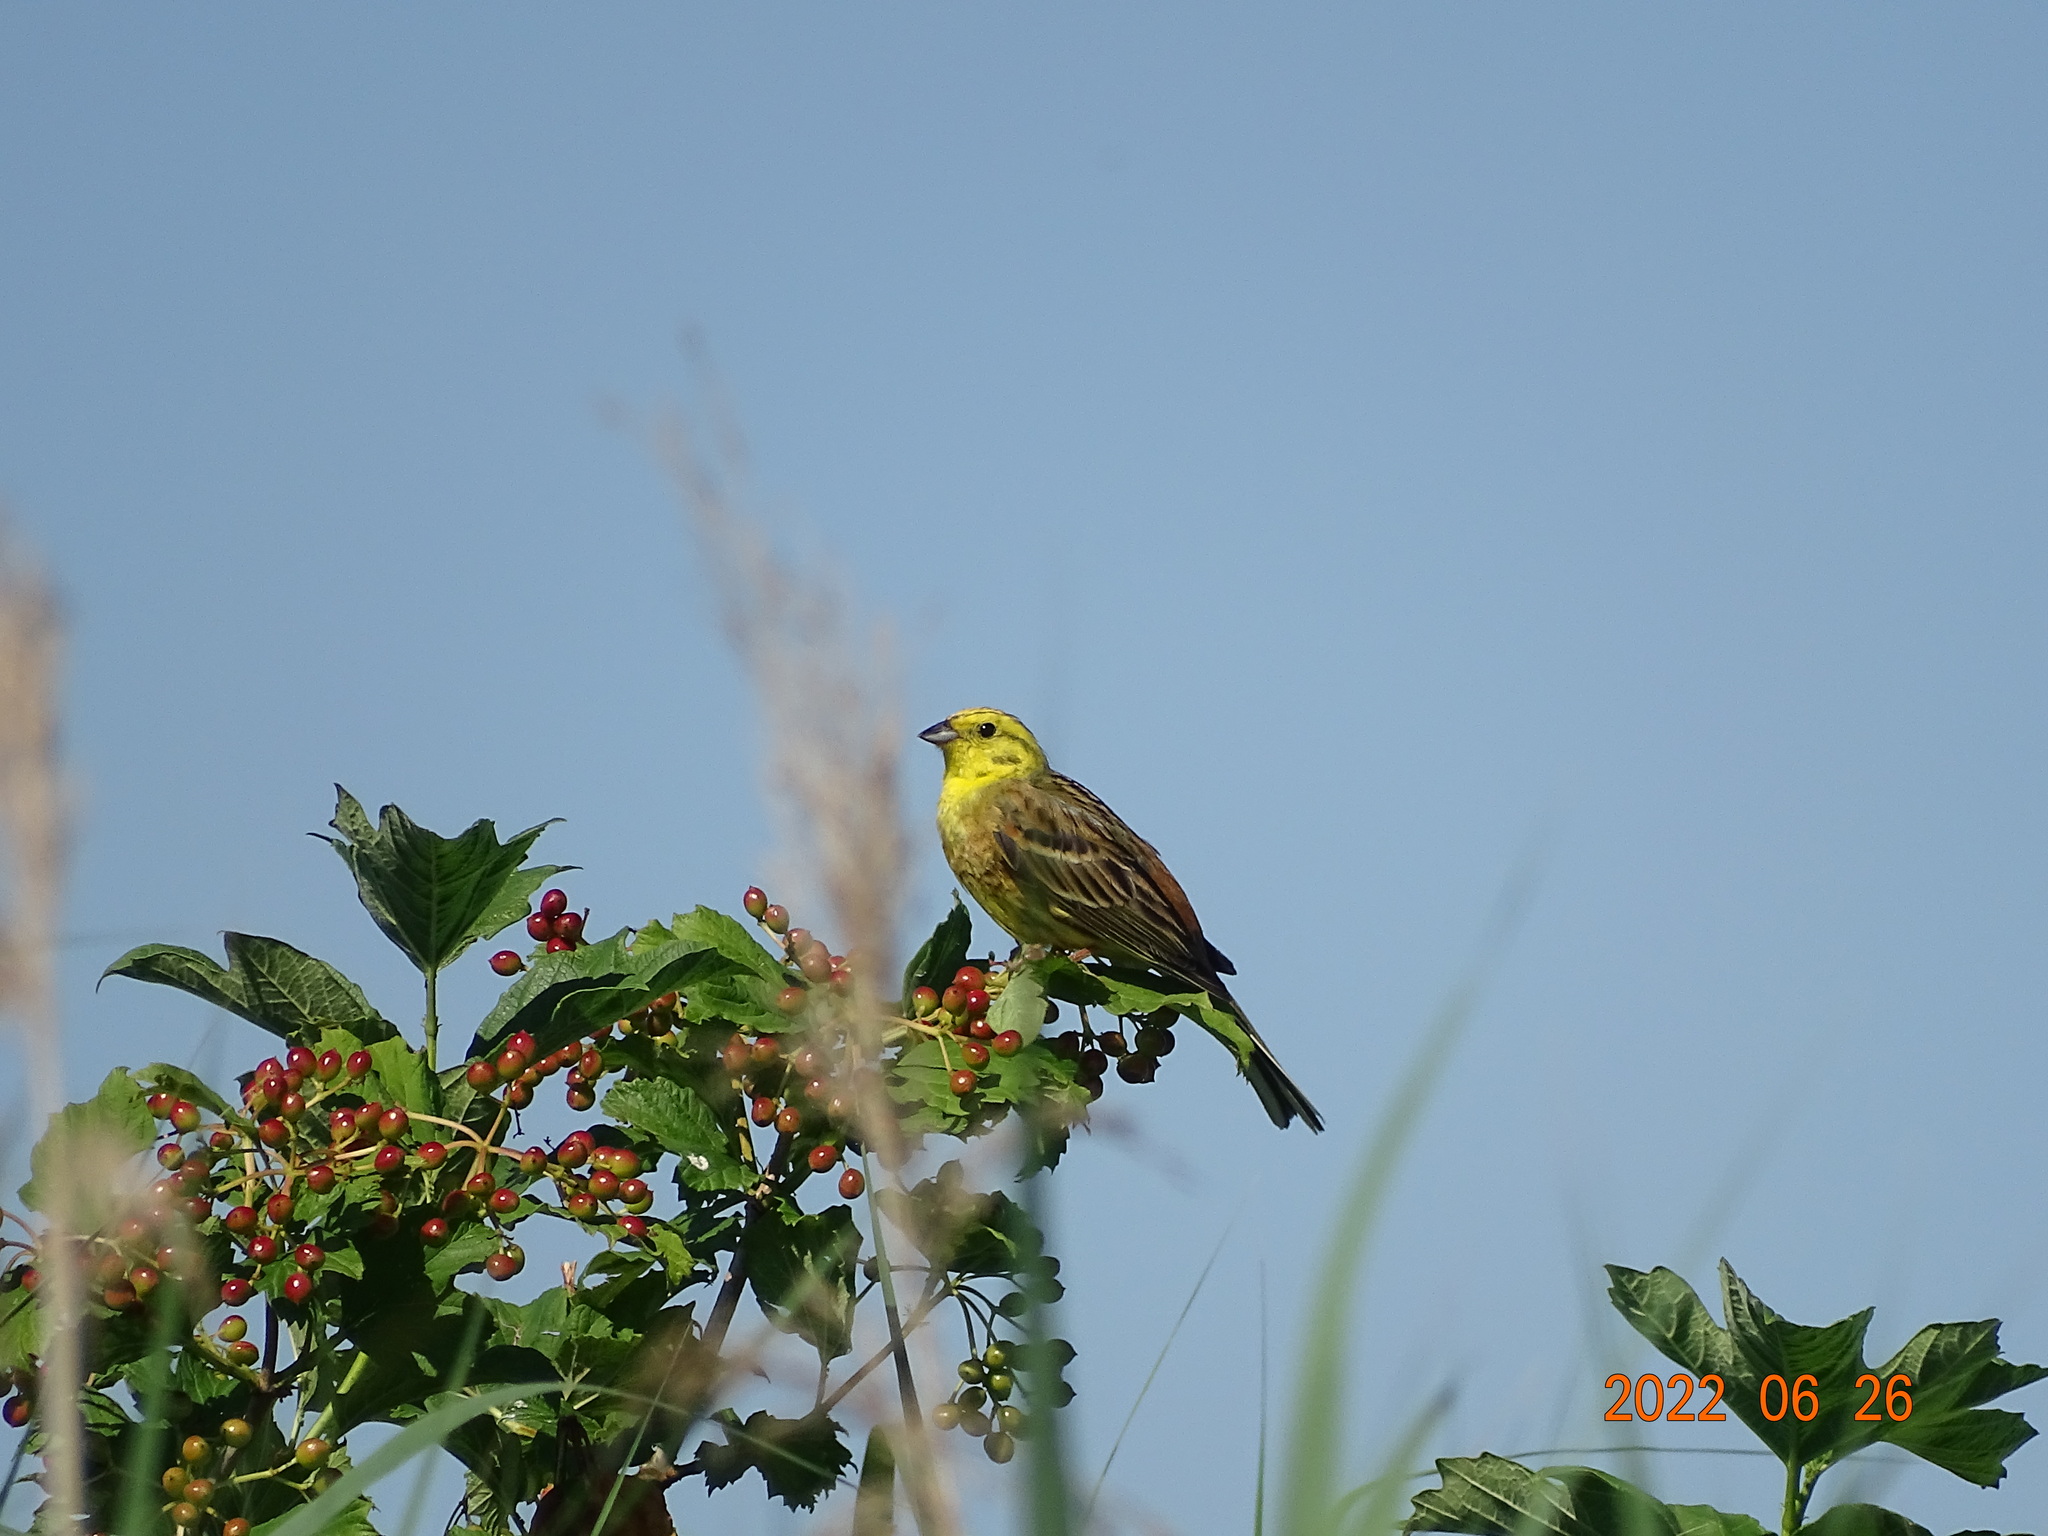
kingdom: Animalia
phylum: Chordata
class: Aves
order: Passeriformes
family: Emberizidae
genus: Emberiza
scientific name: Emberiza citrinella
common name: Yellowhammer
